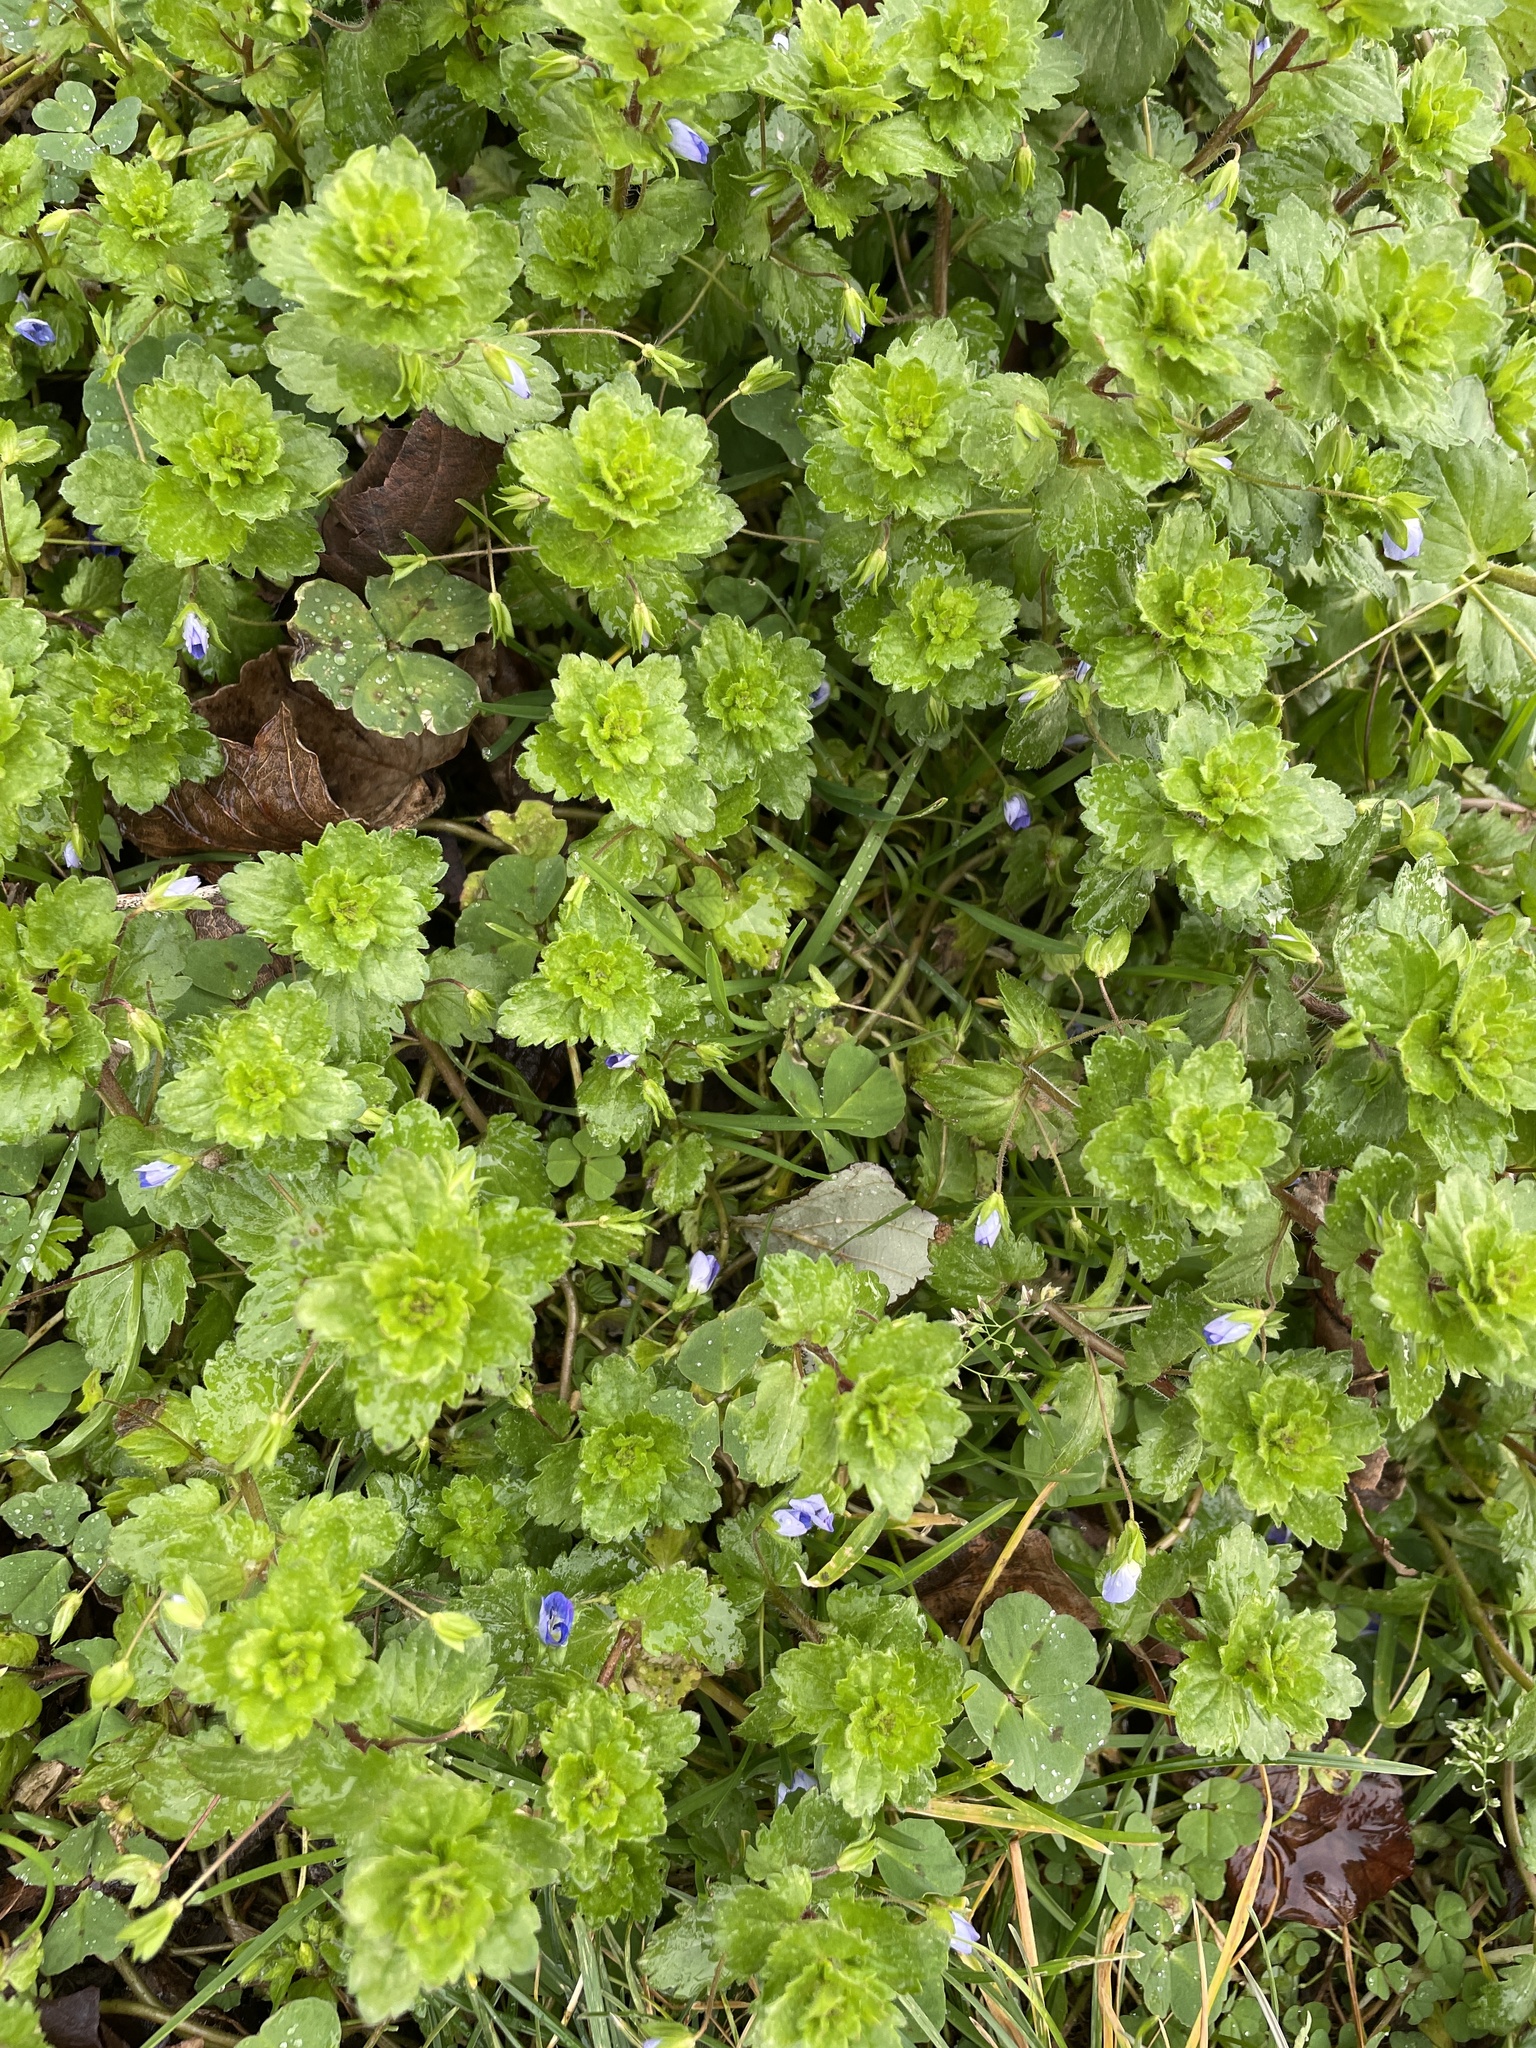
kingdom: Plantae
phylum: Tracheophyta
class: Magnoliopsida
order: Lamiales
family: Plantaginaceae
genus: Veronica
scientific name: Veronica persica
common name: Common field-speedwell
